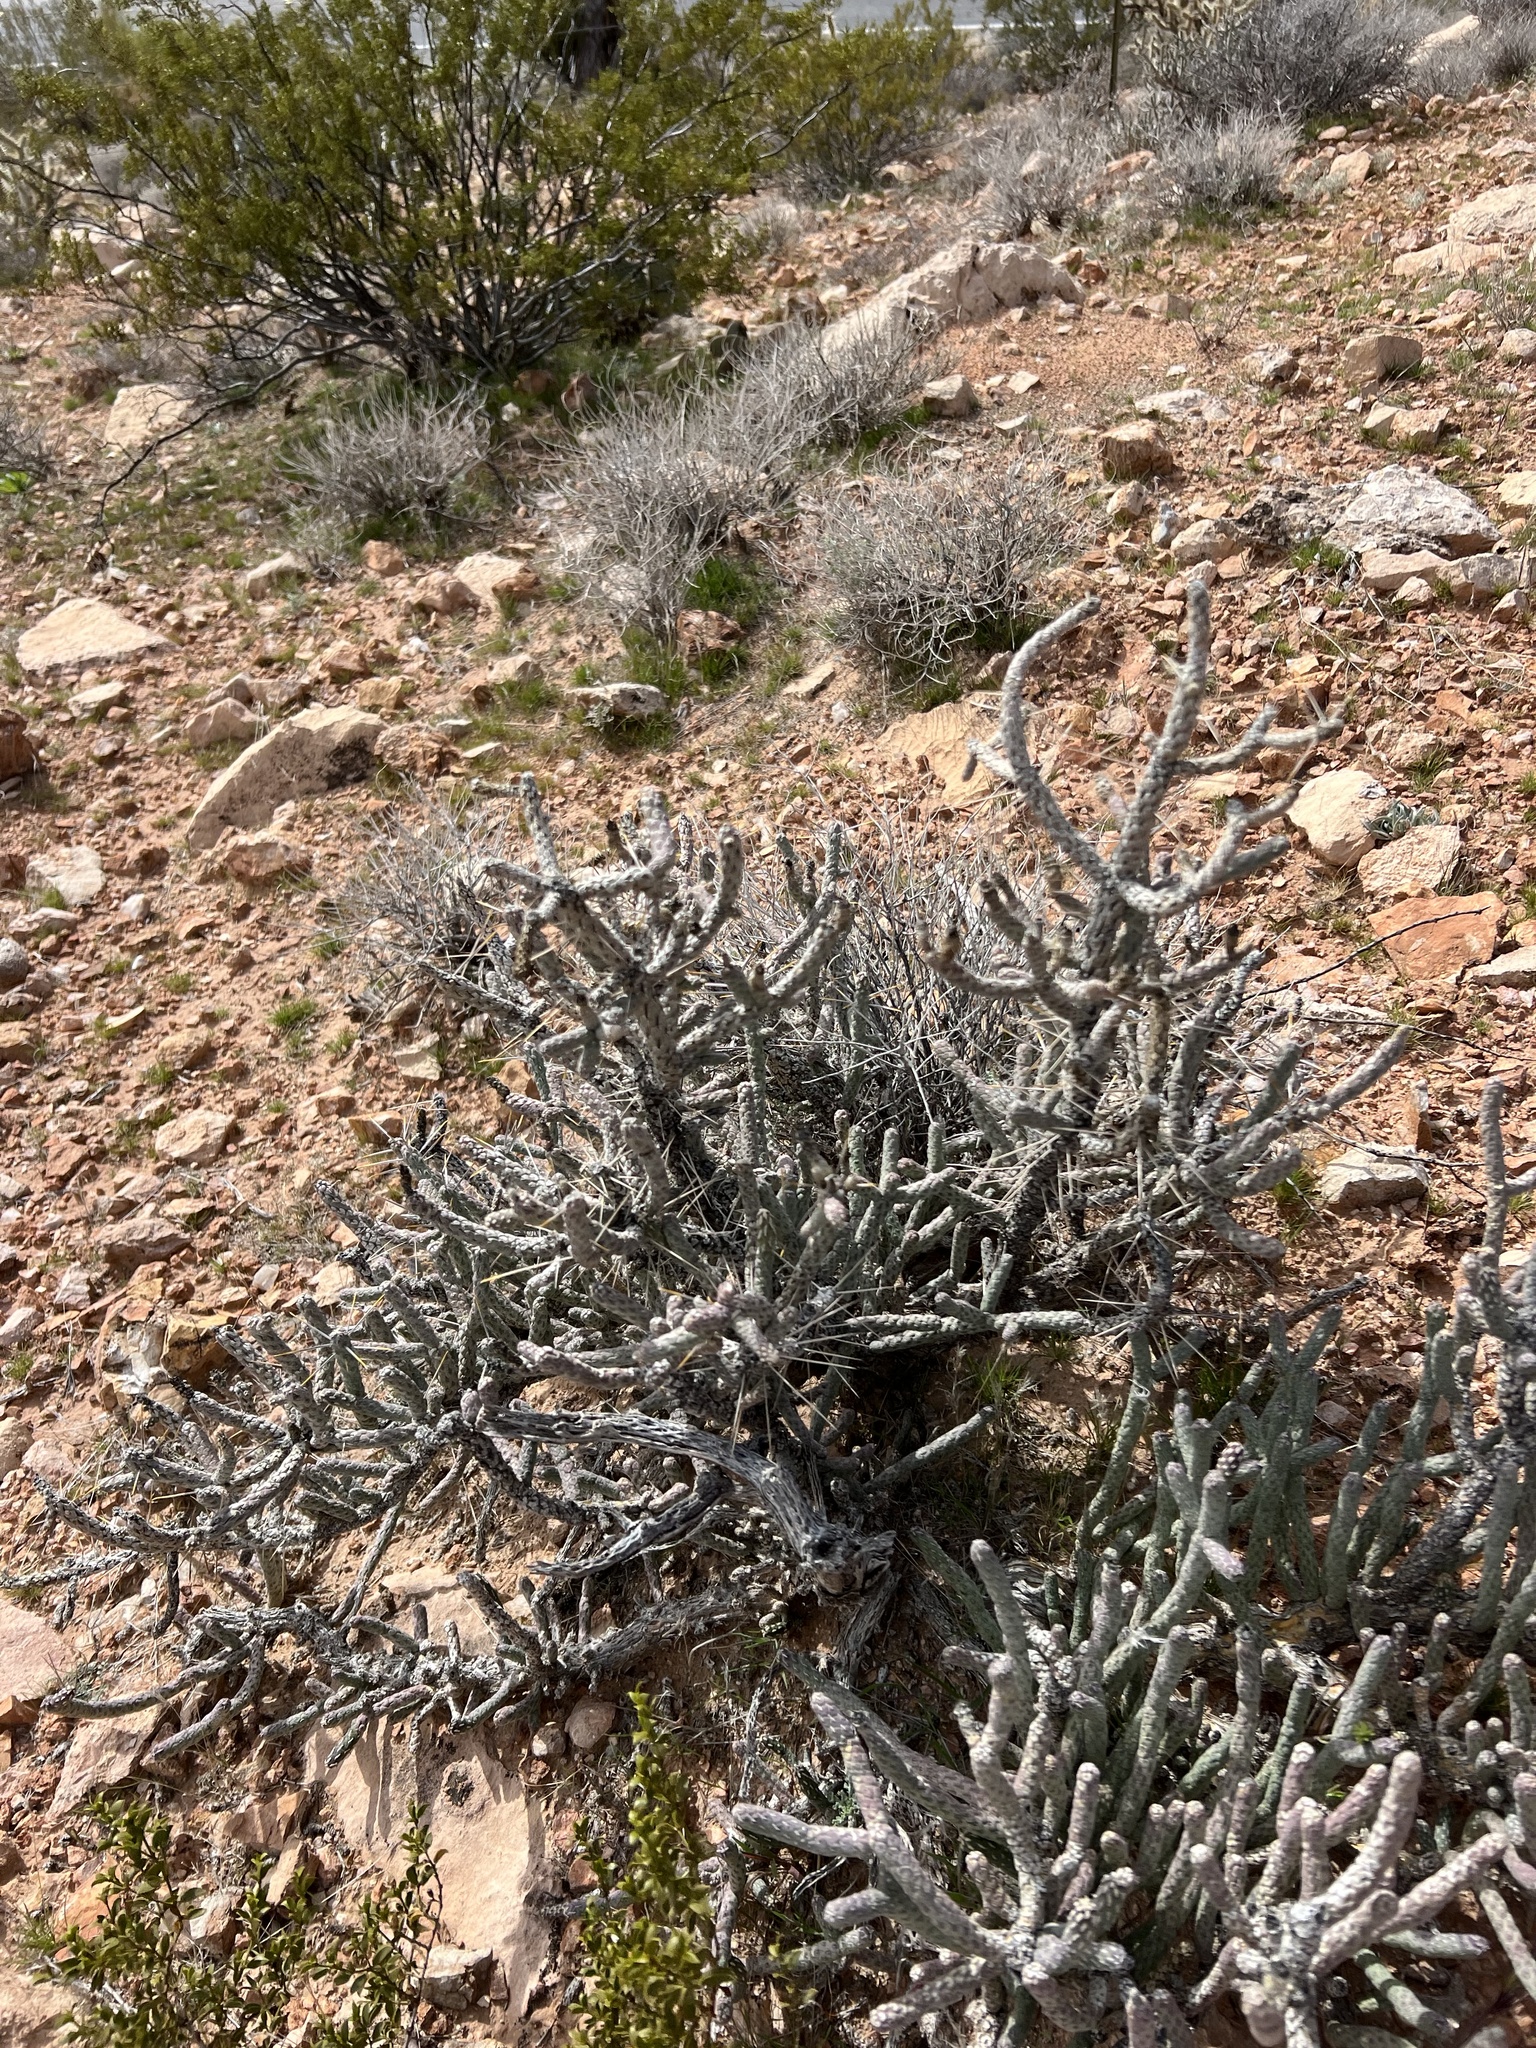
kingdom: Plantae
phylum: Tracheophyta
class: Magnoliopsida
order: Caryophyllales
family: Cactaceae
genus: Cylindropuntia
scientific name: Cylindropuntia ramosissima
